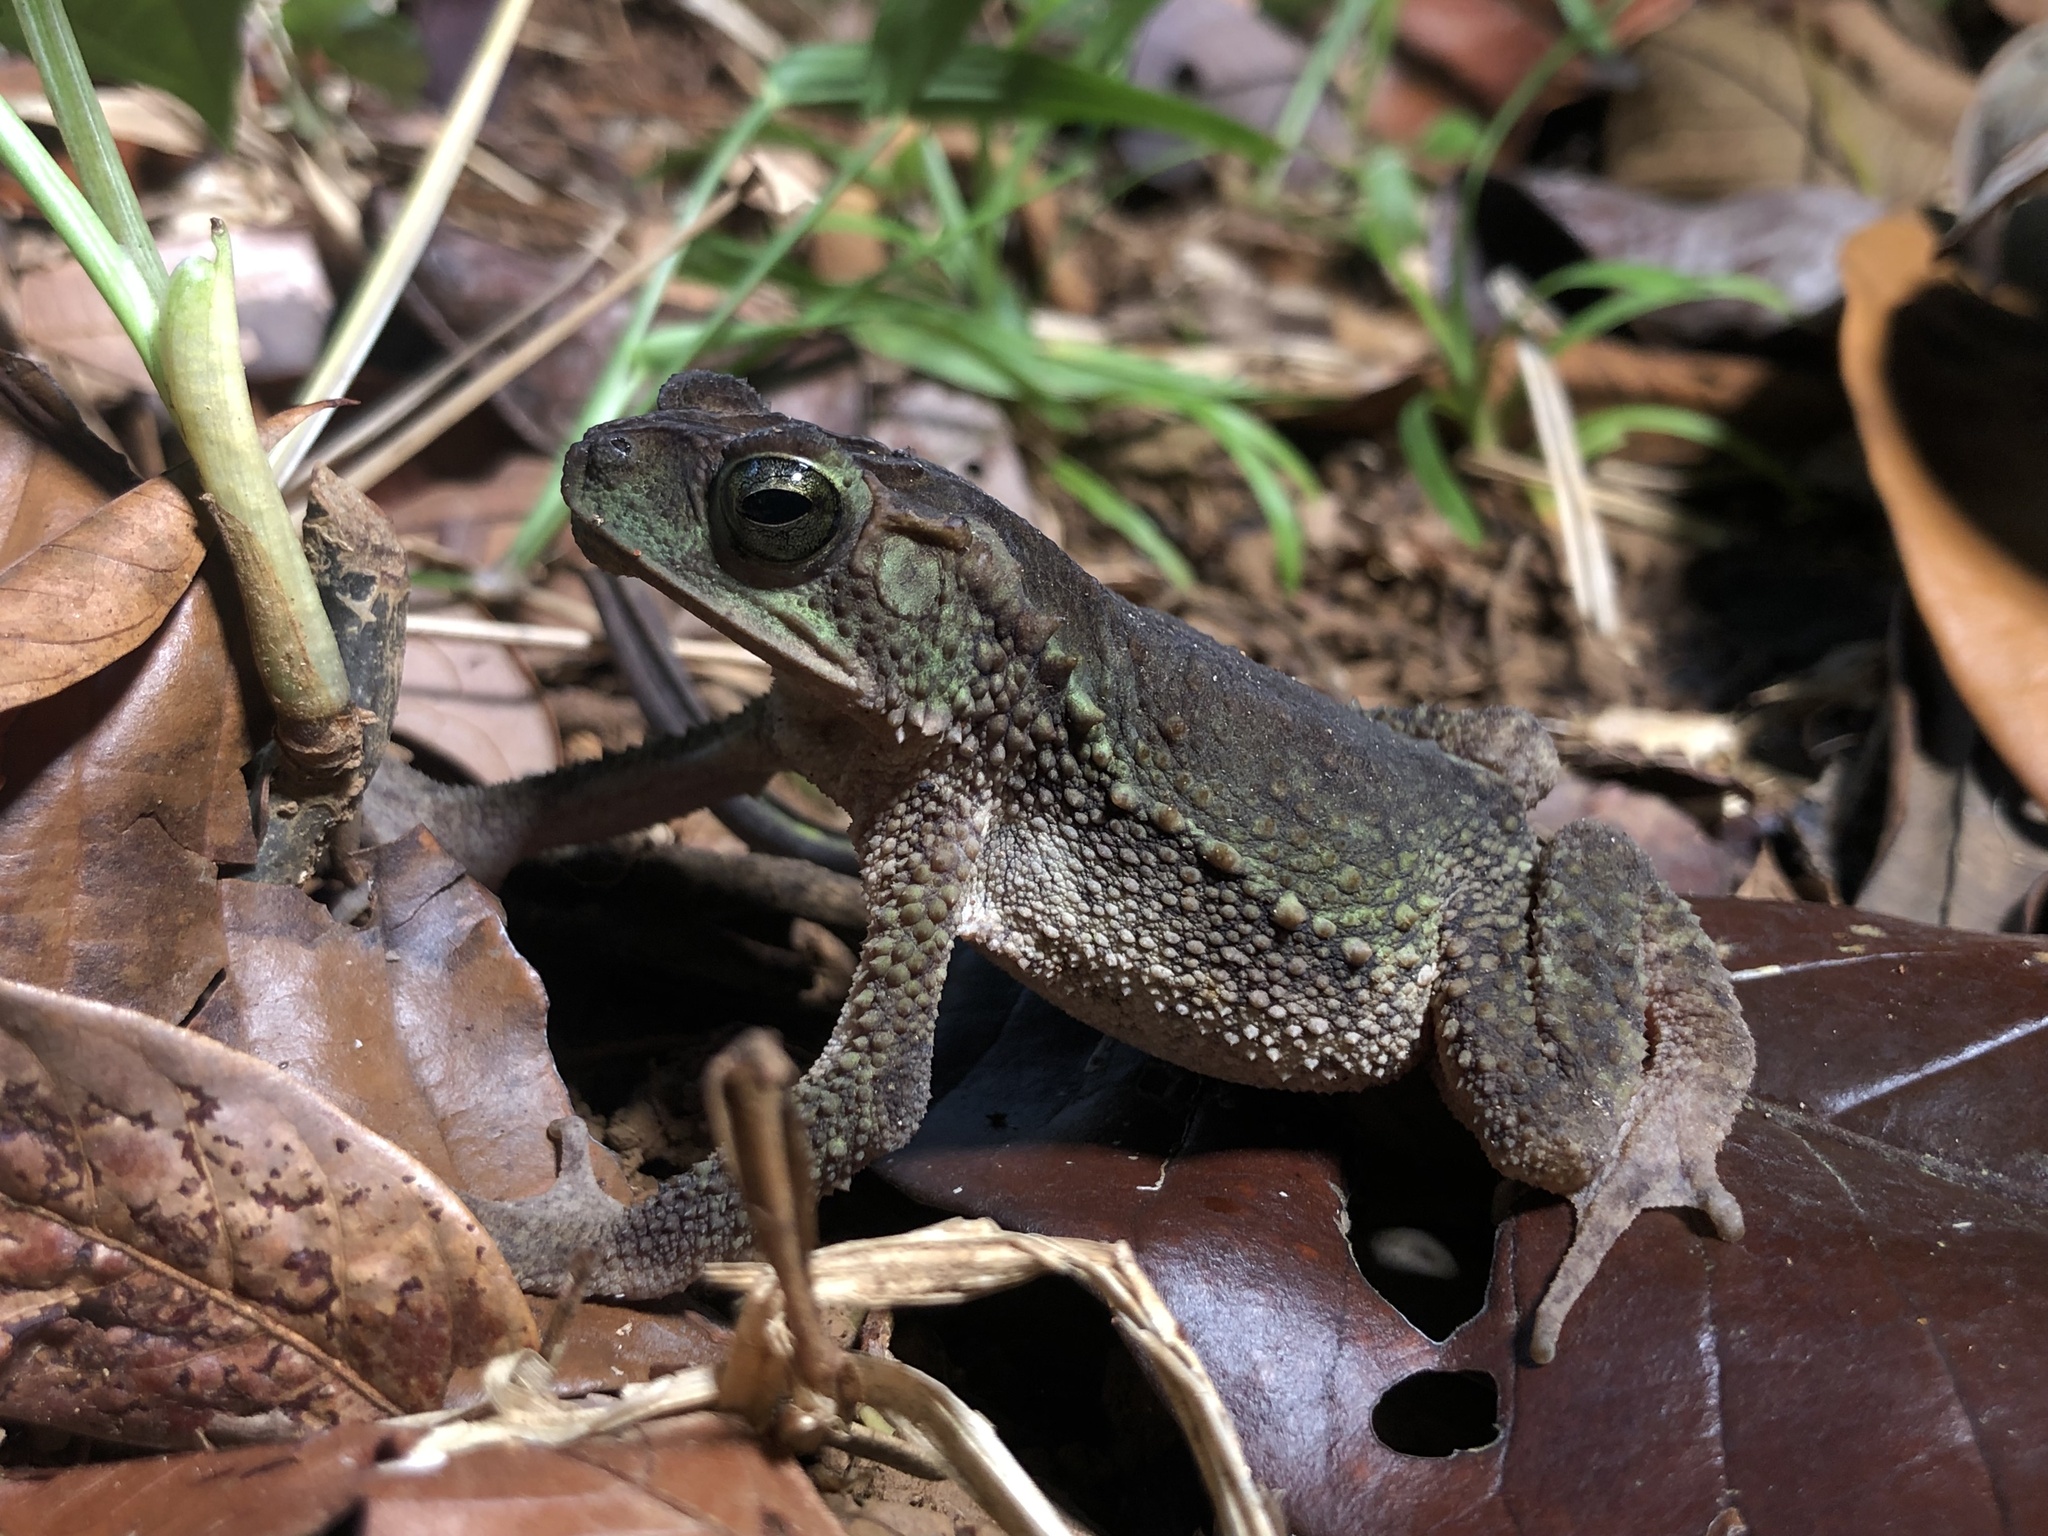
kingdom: Animalia
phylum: Chordata
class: Amphibia
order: Anura
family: Bufonidae
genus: Incilius
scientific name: Incilius coniferus
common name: Evergreen toad
